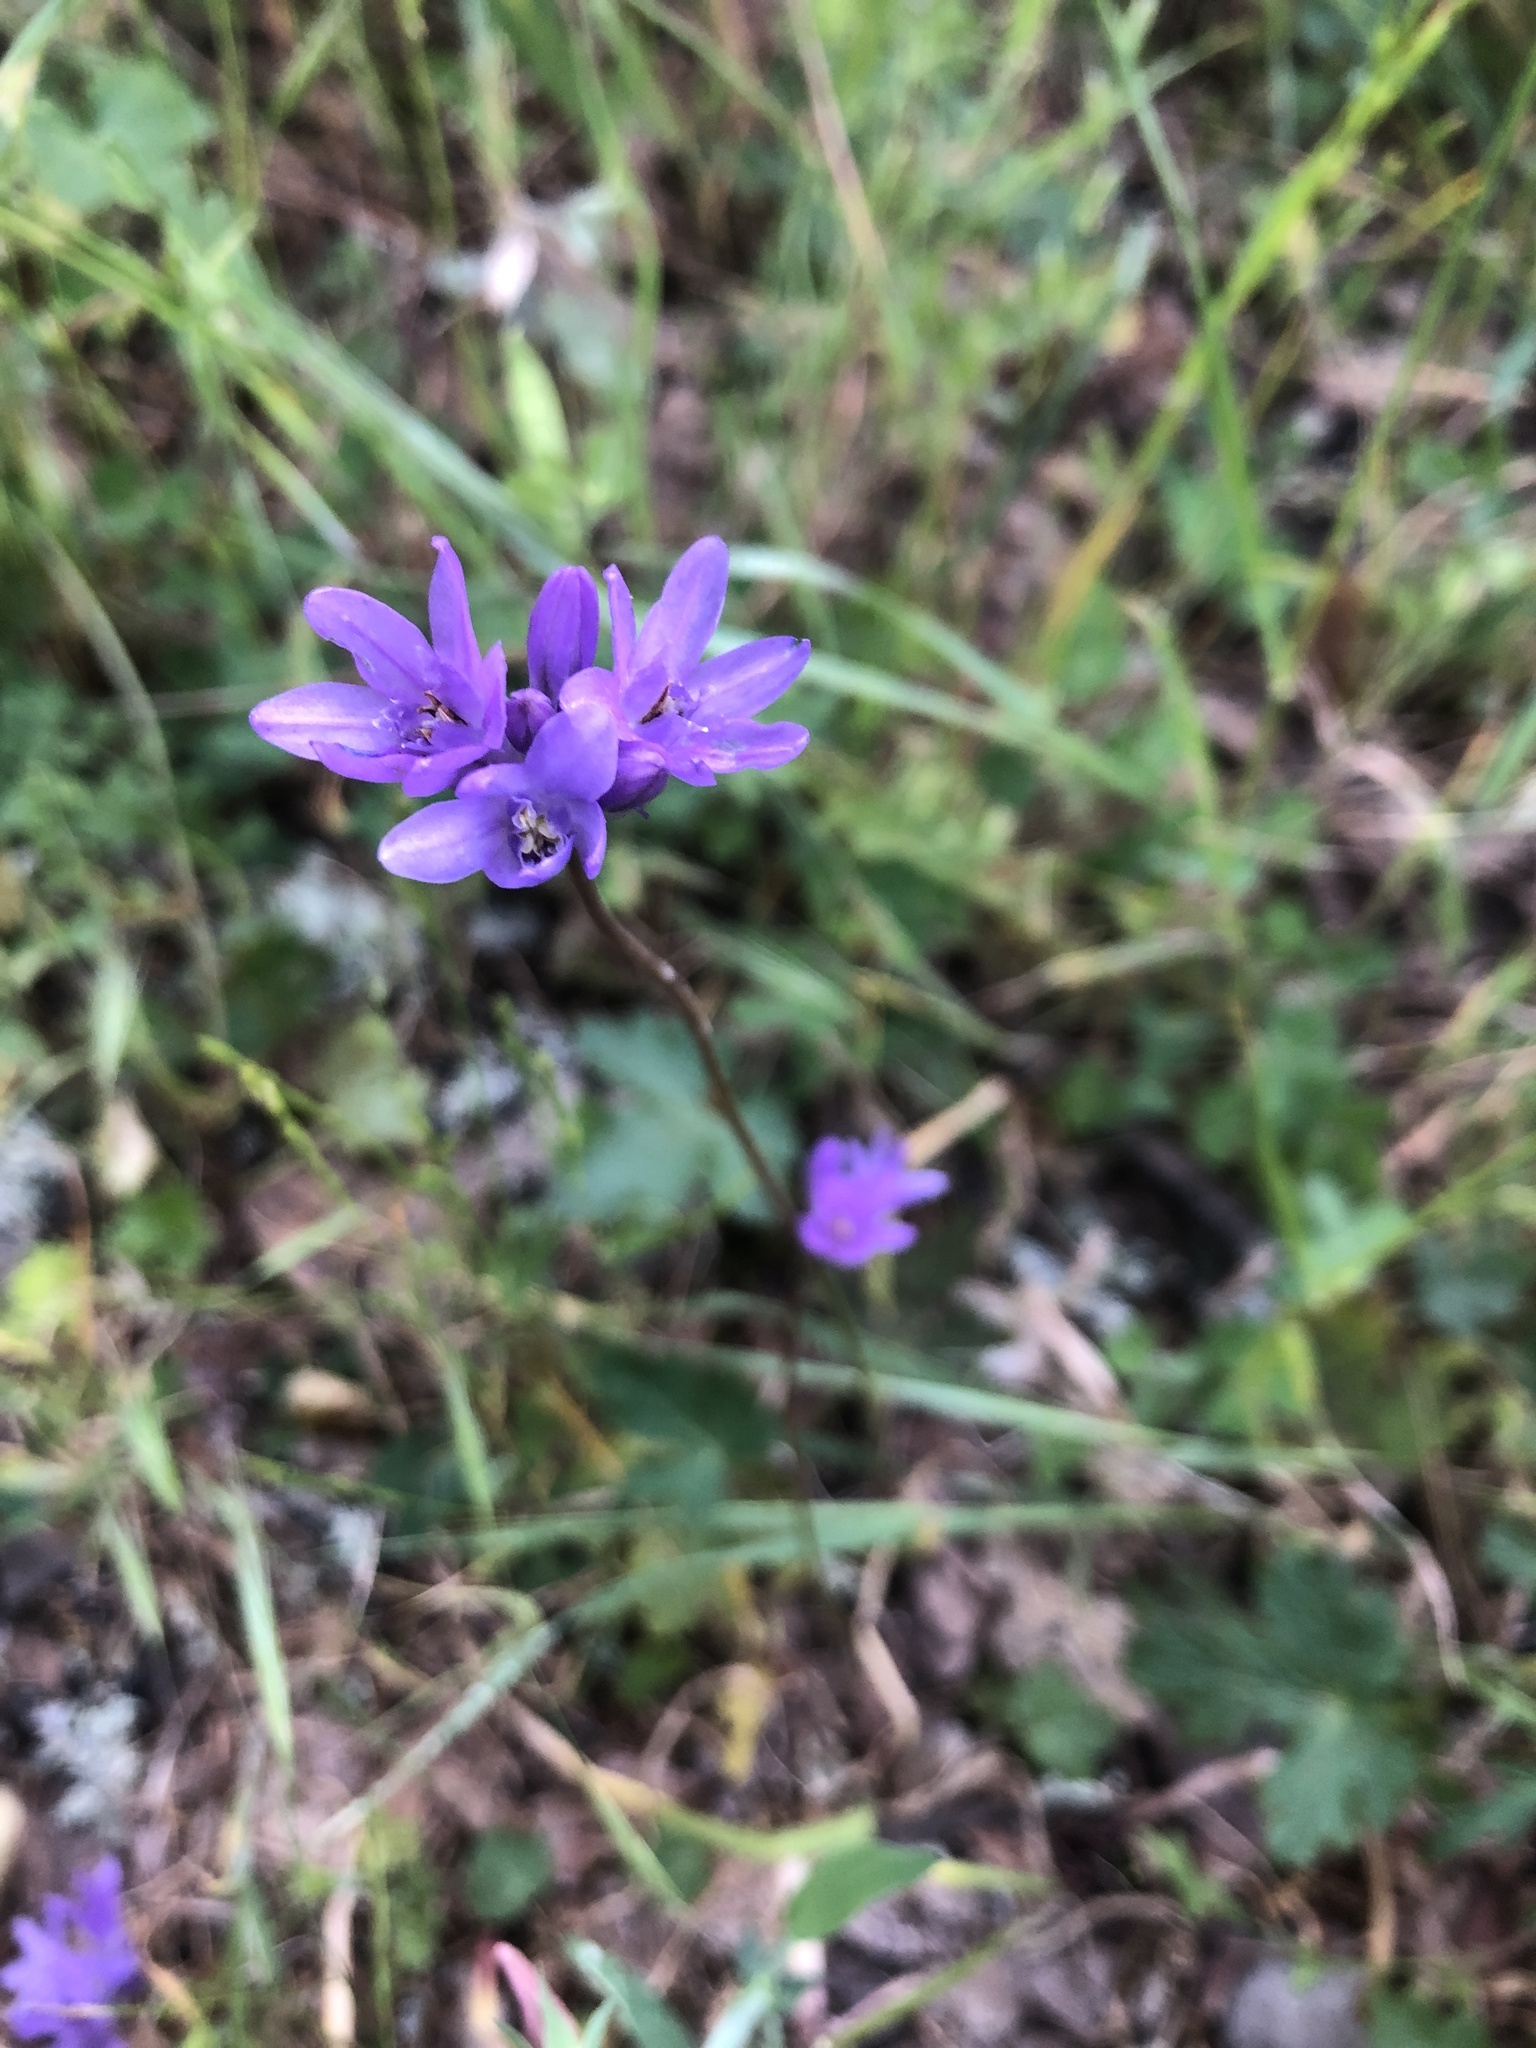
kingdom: Plantae
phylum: Tracheophyta
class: Liliopsida
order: Asparagales
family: Asparagaceae
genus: Dichelostemma
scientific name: Dichelostemma congestum
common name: Fork-tooth ookow
